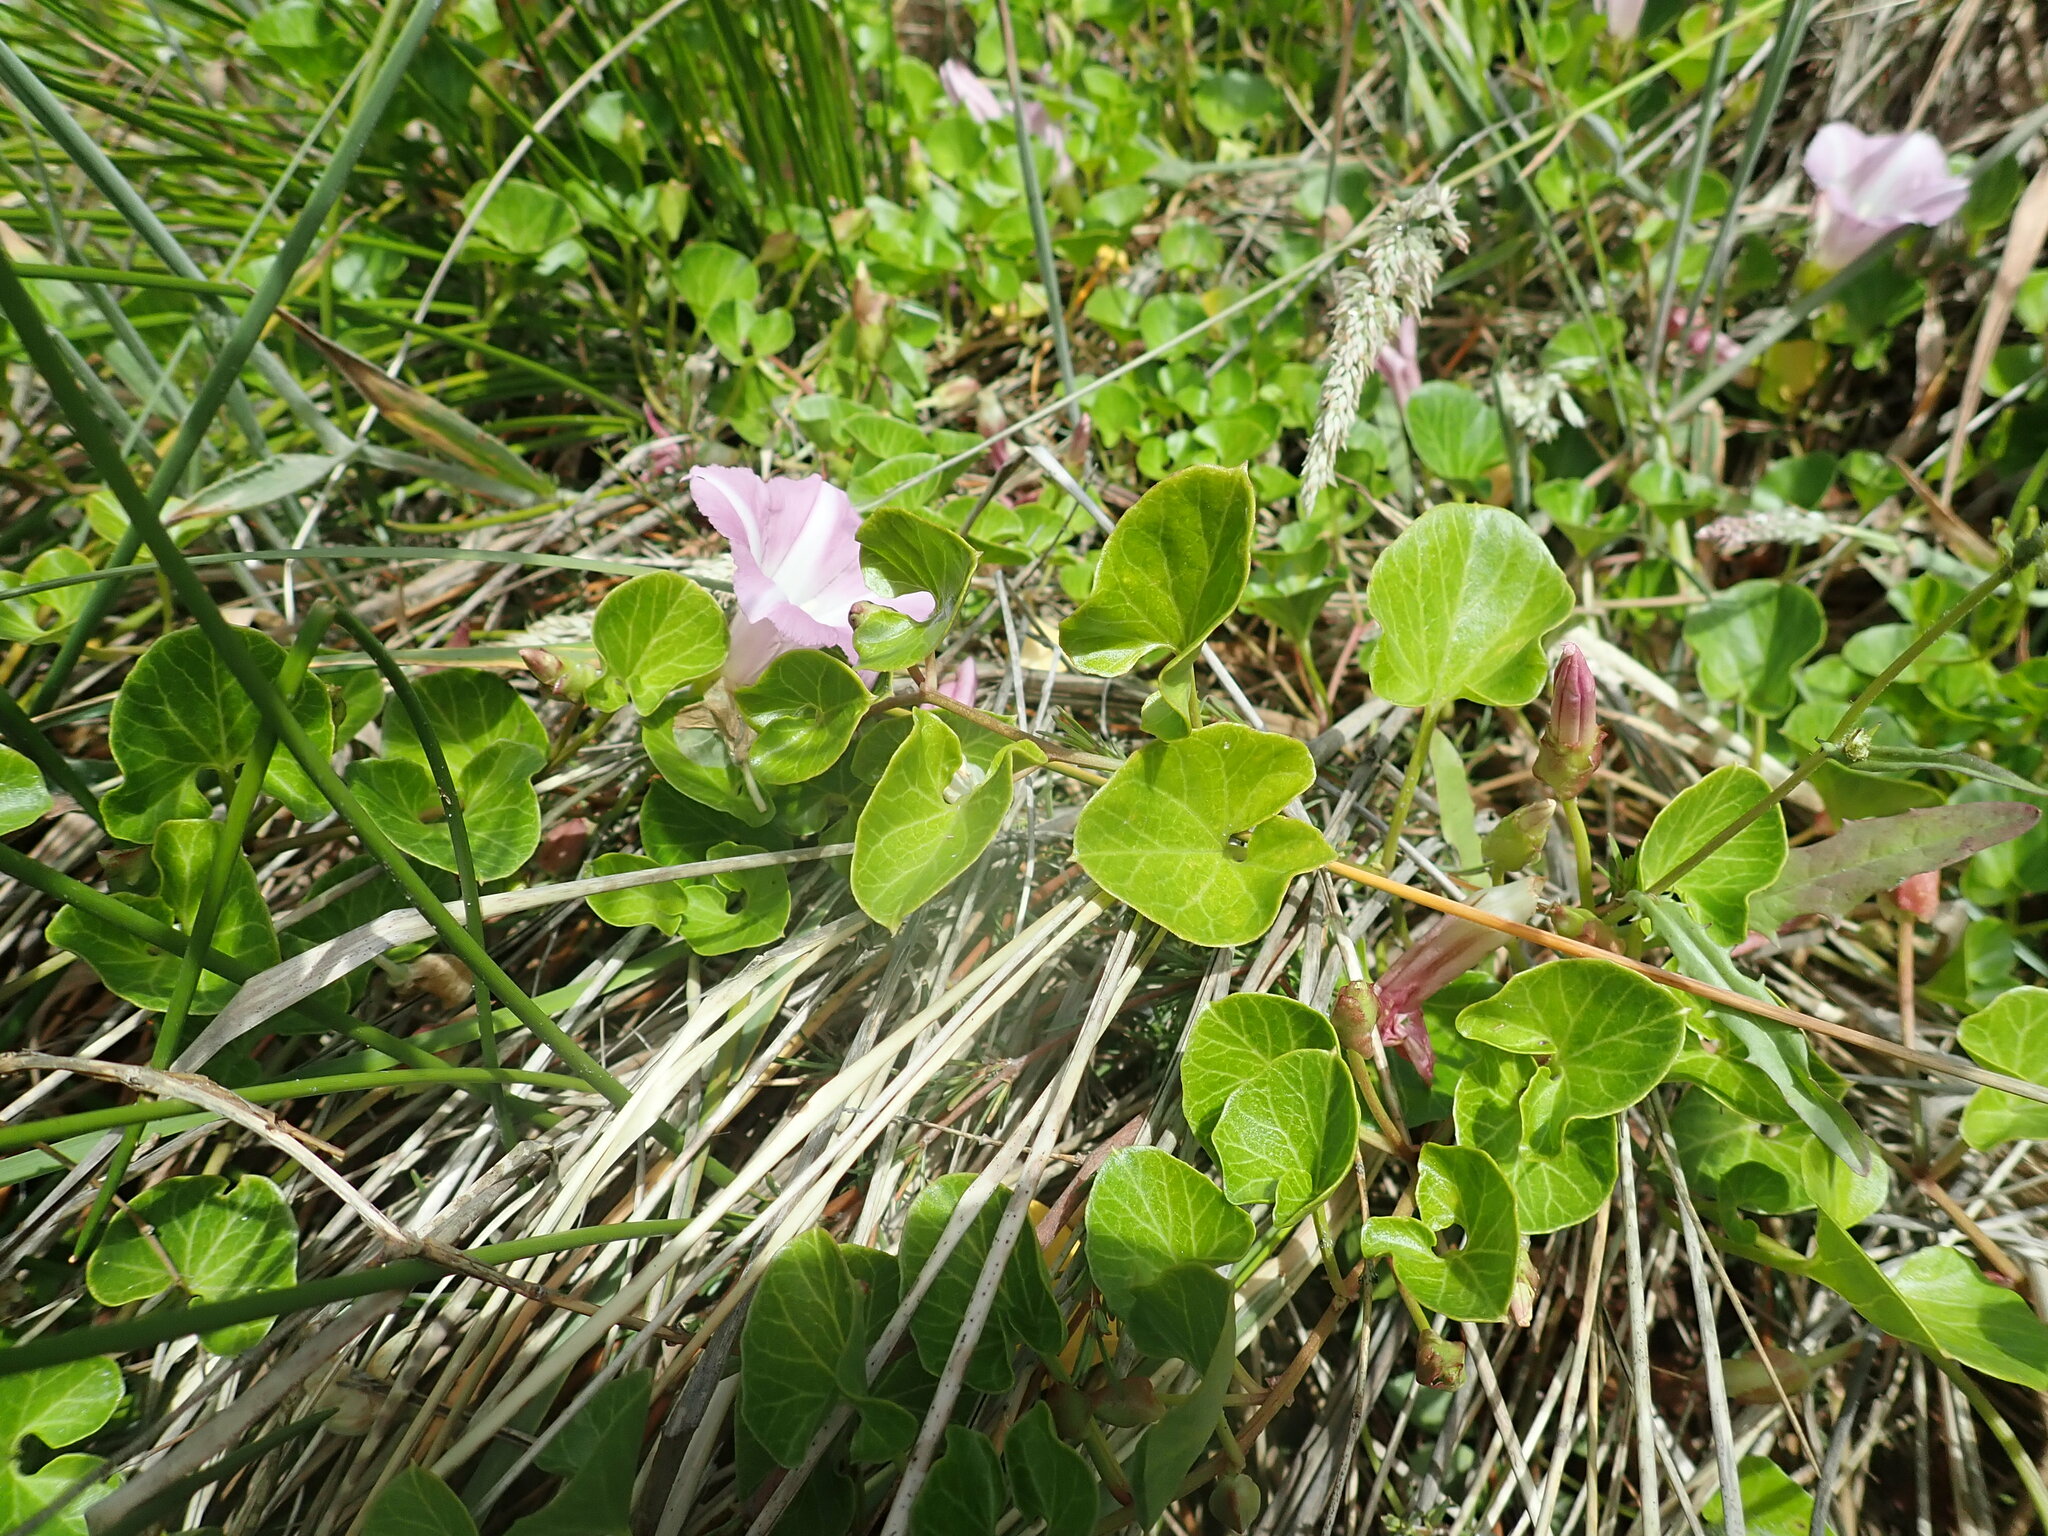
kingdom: Plantae
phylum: Tracheophyta
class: Magnoliopsida
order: Solanales
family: Convolvulaceae
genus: Calystegia
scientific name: Calystegia soldanella
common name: Sea bindweed
